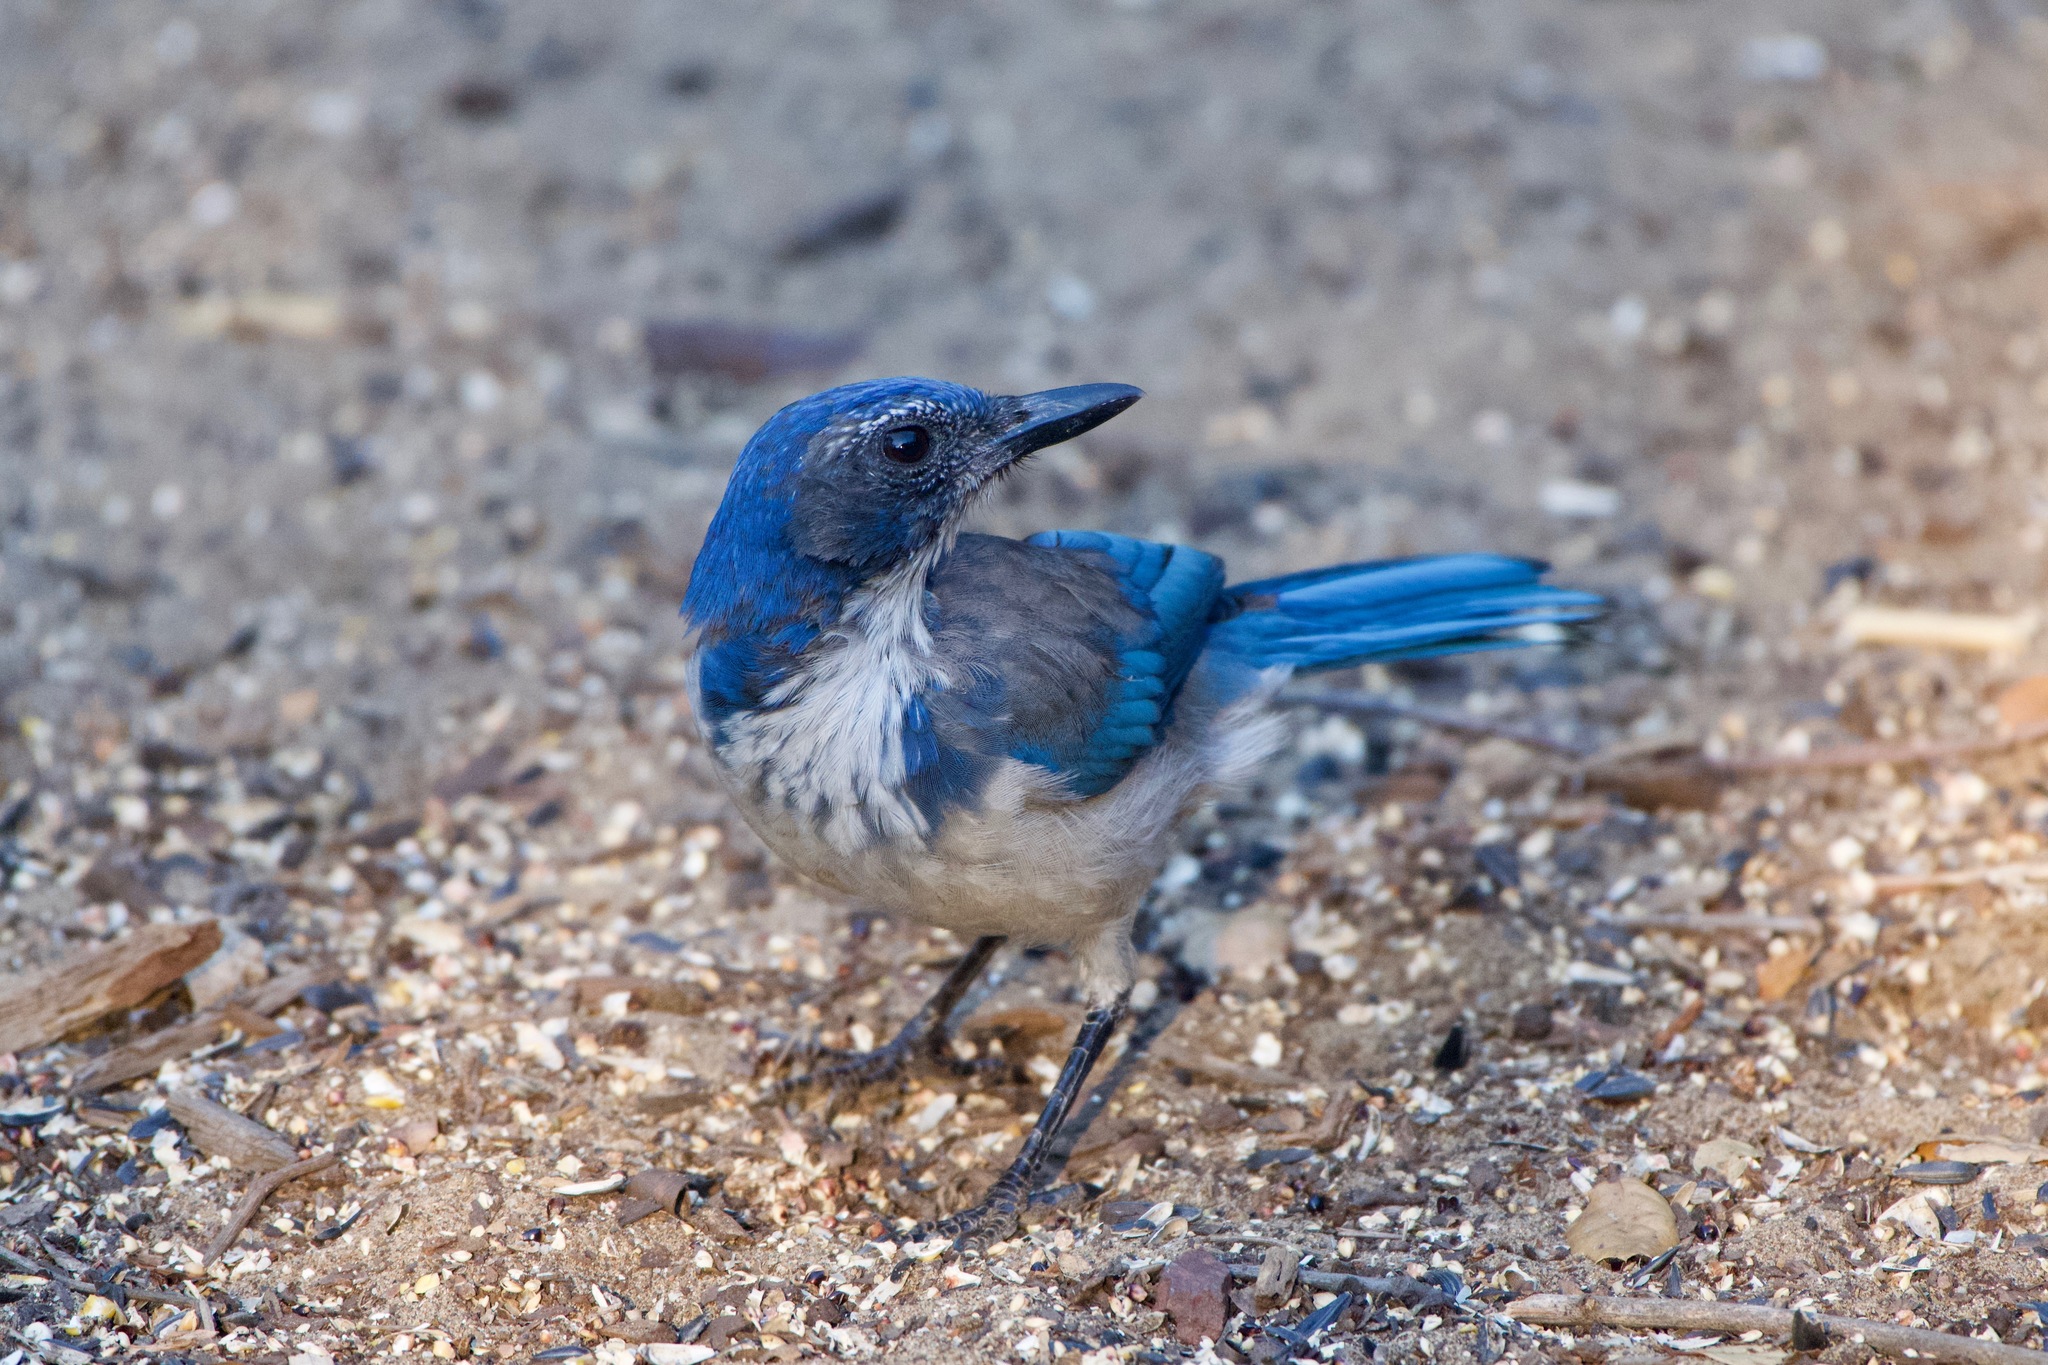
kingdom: Animalia
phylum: Chordata
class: Aves
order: Passeriformes
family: Corvidae
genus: Aphelocoma
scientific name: Aphelocoma californica
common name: California scrub-jay
